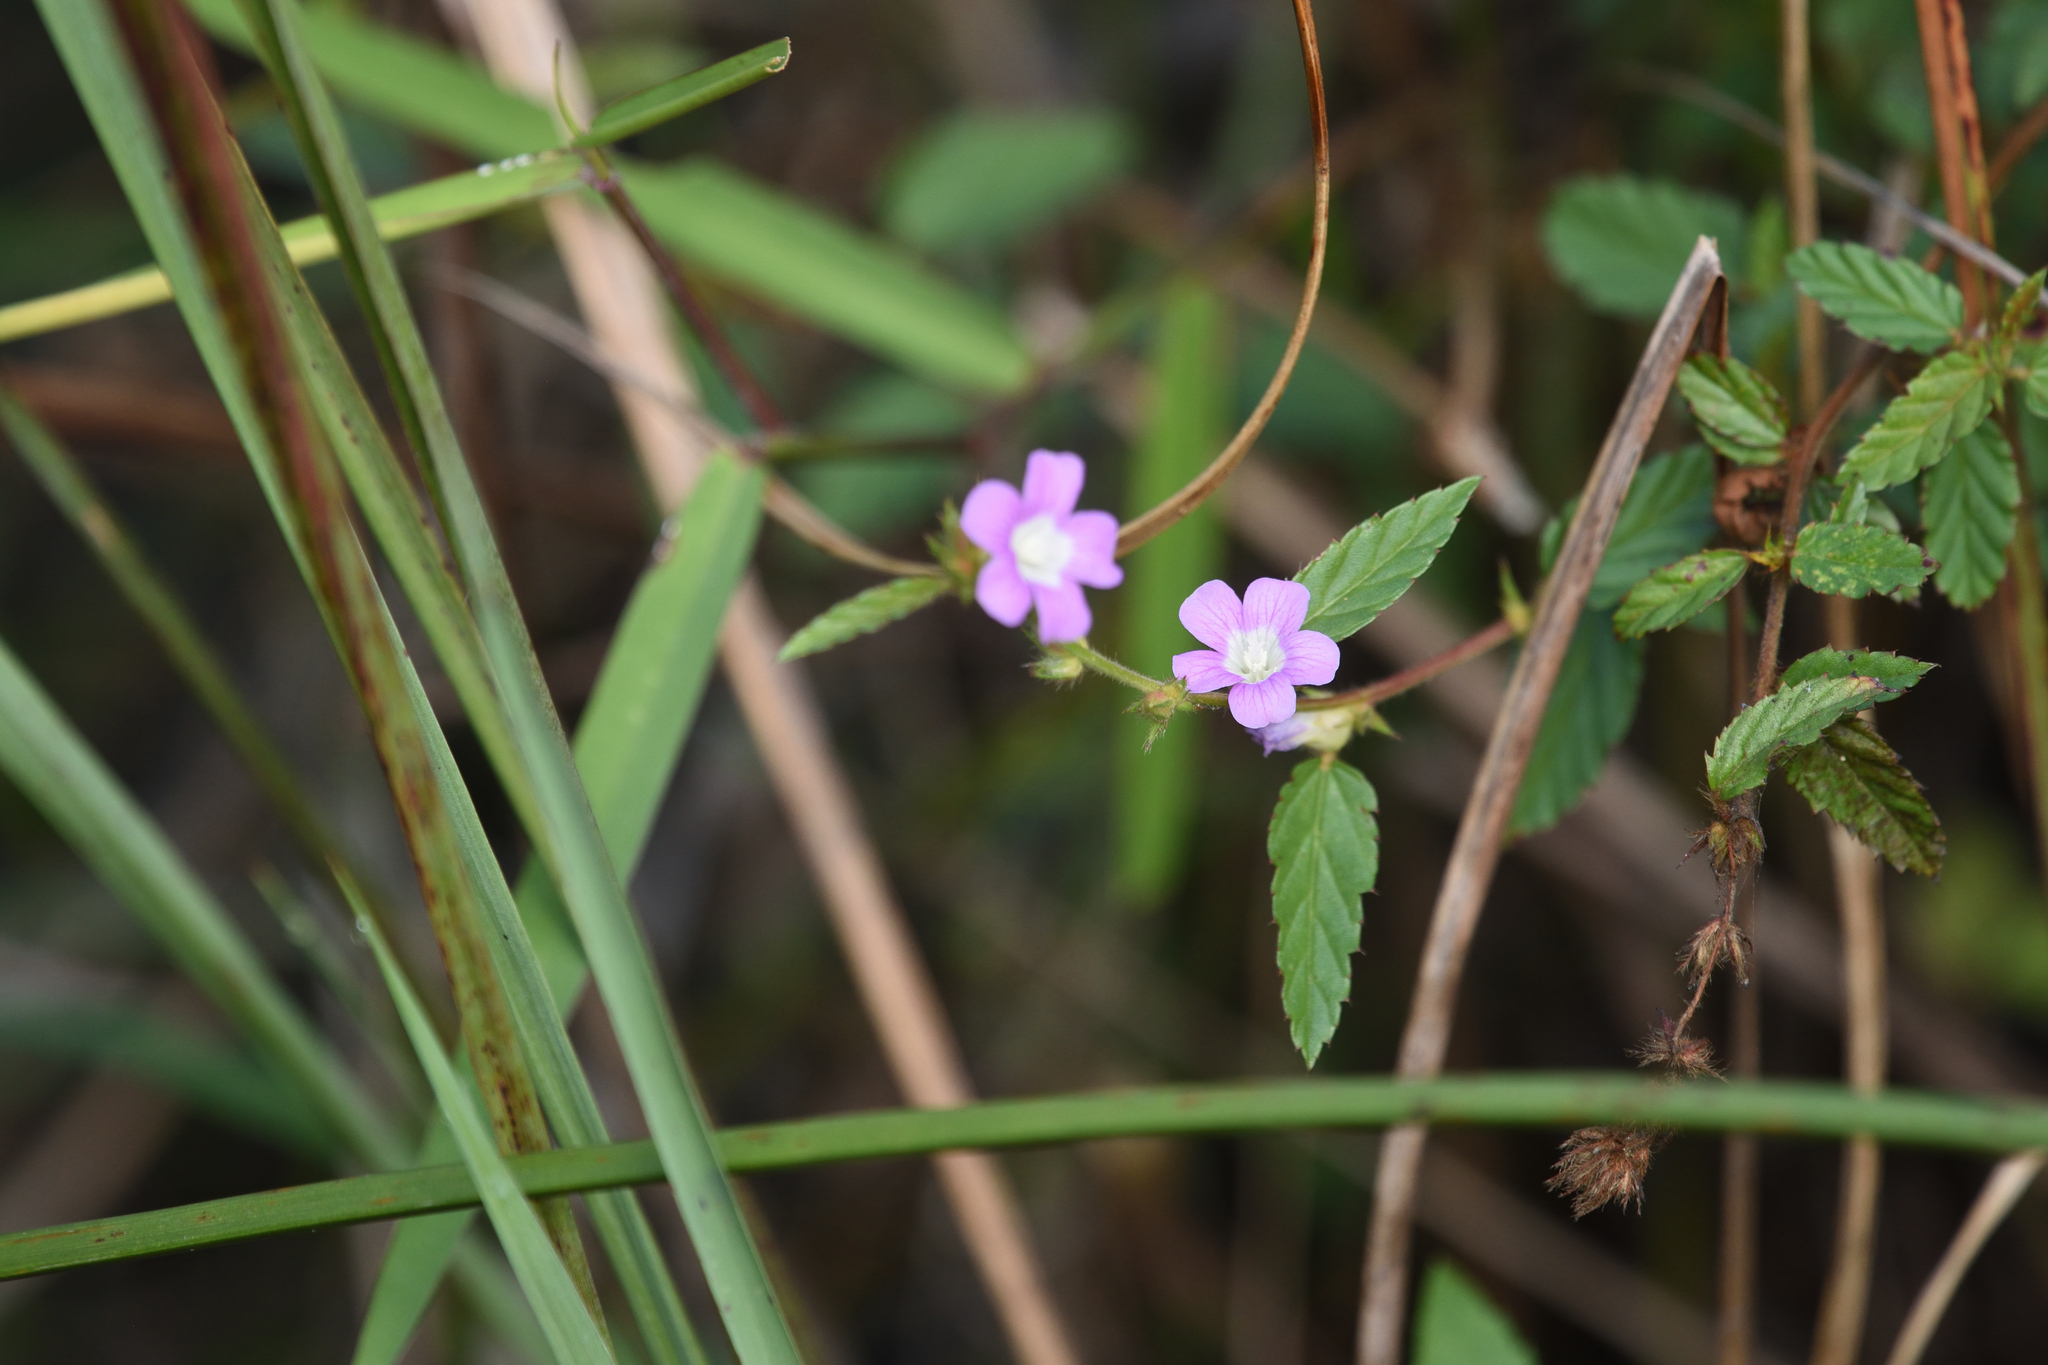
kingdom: Plantae
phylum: Tracheophyta
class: Magnoliopsida
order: Malvales
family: Malvaceae
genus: Melochia
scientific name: Melochia spicata
